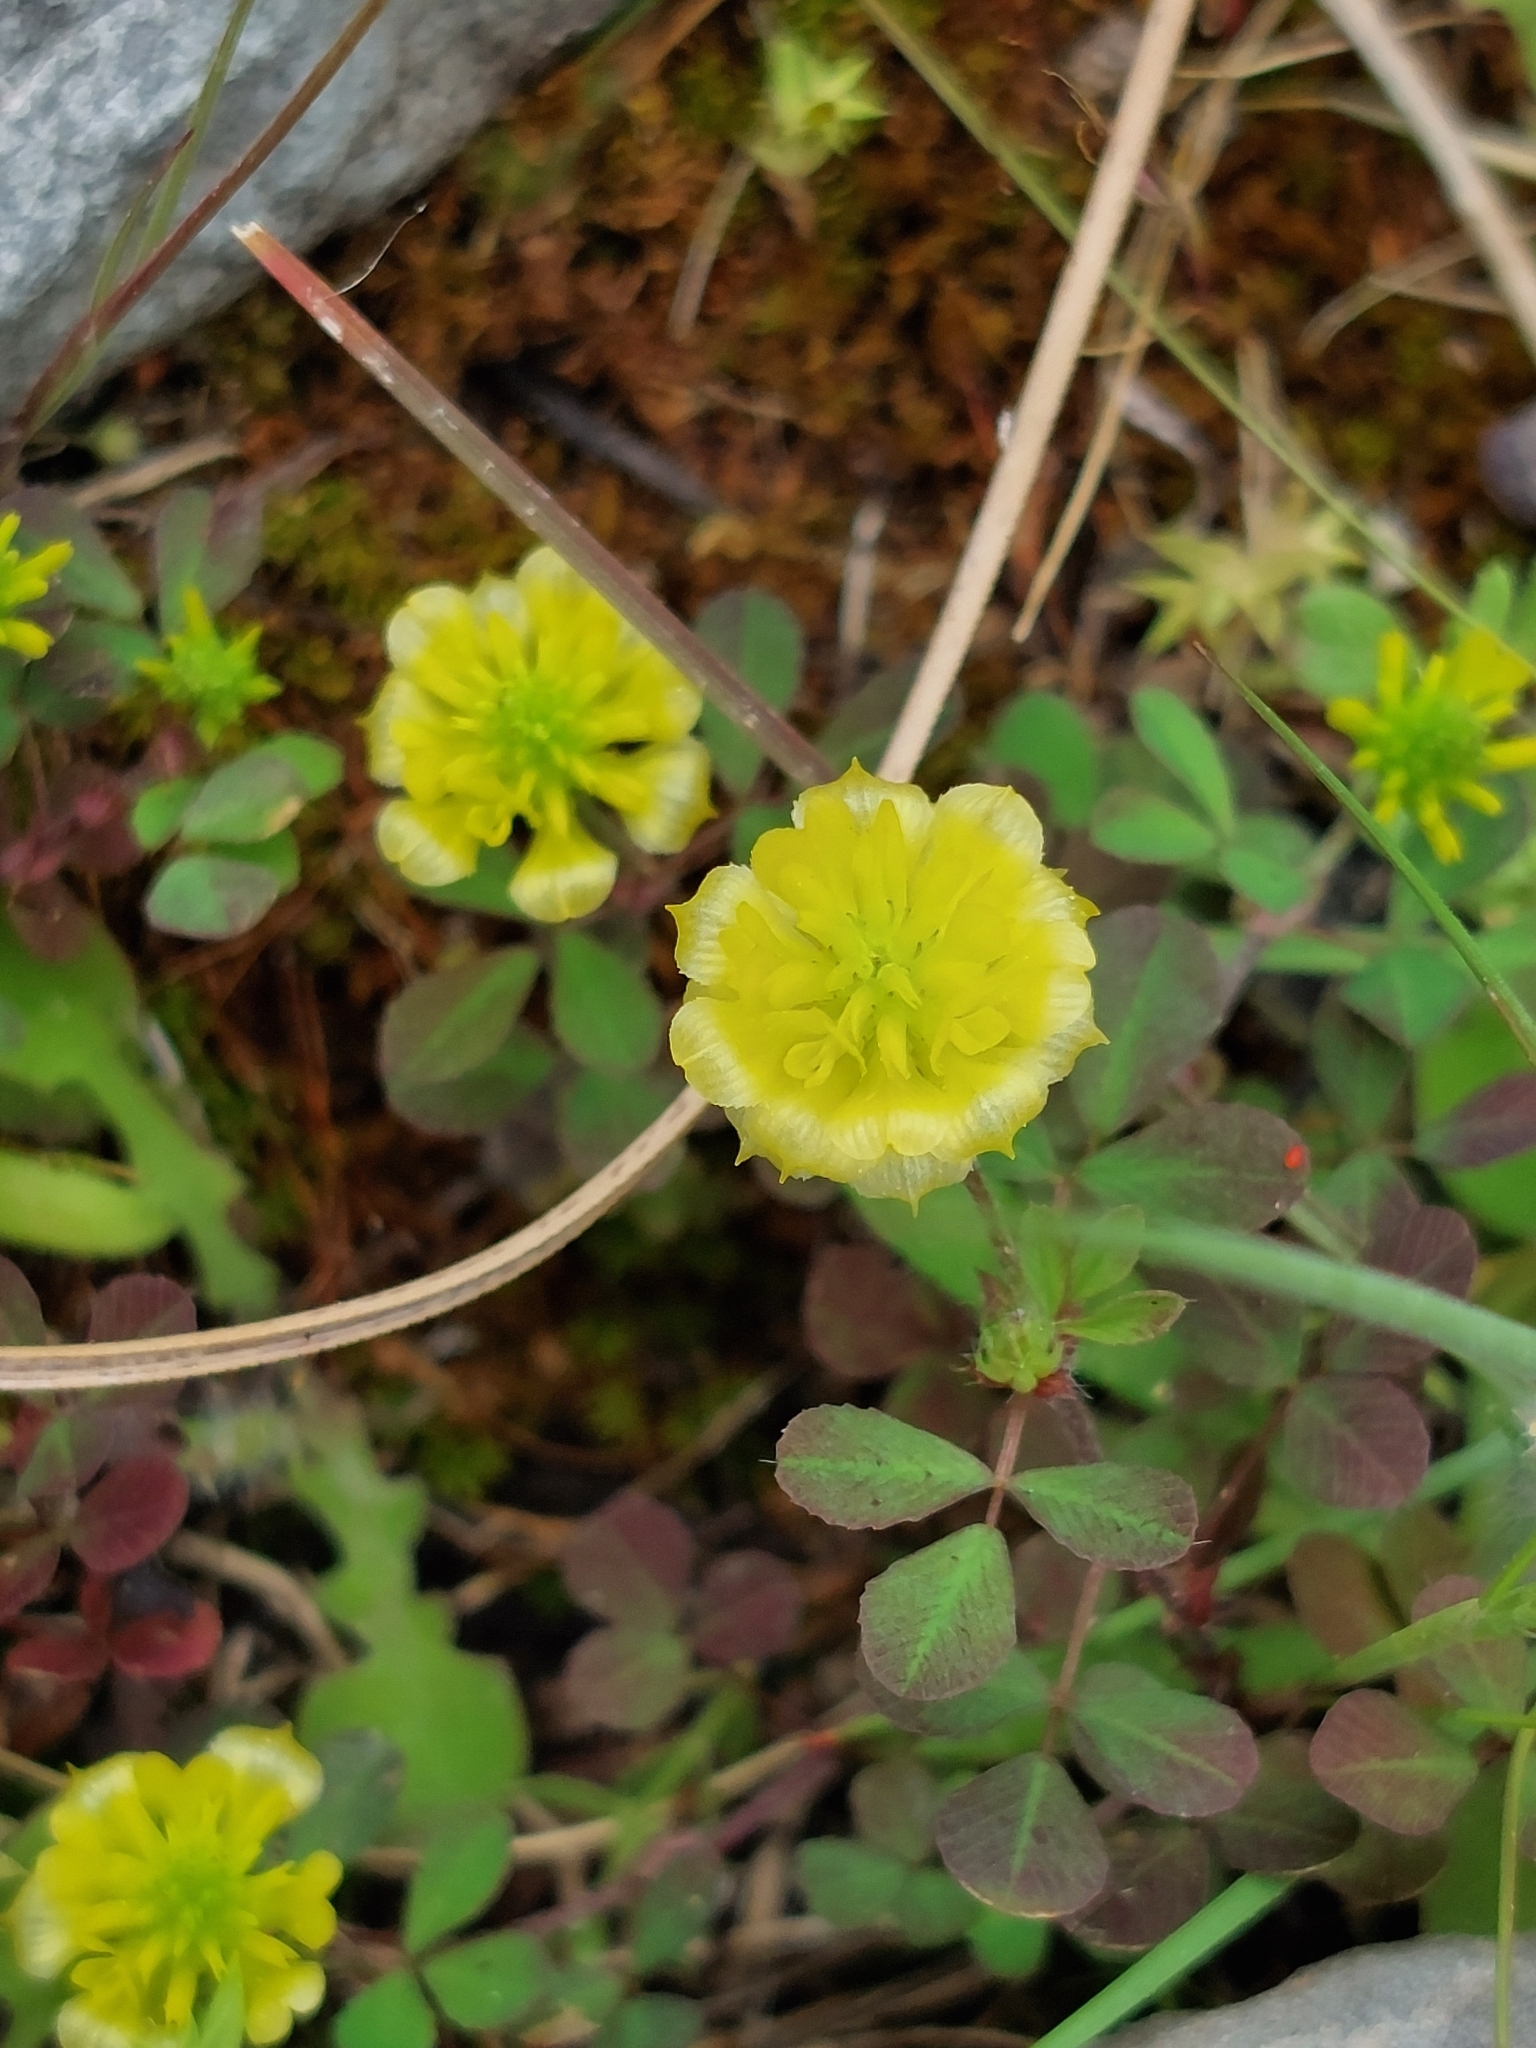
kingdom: Plantae
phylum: Tracheophyta
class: Magnoliopsida
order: Fabales
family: Fabaceae
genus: Trifolium
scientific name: Trifolium campestre
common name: Field clover
